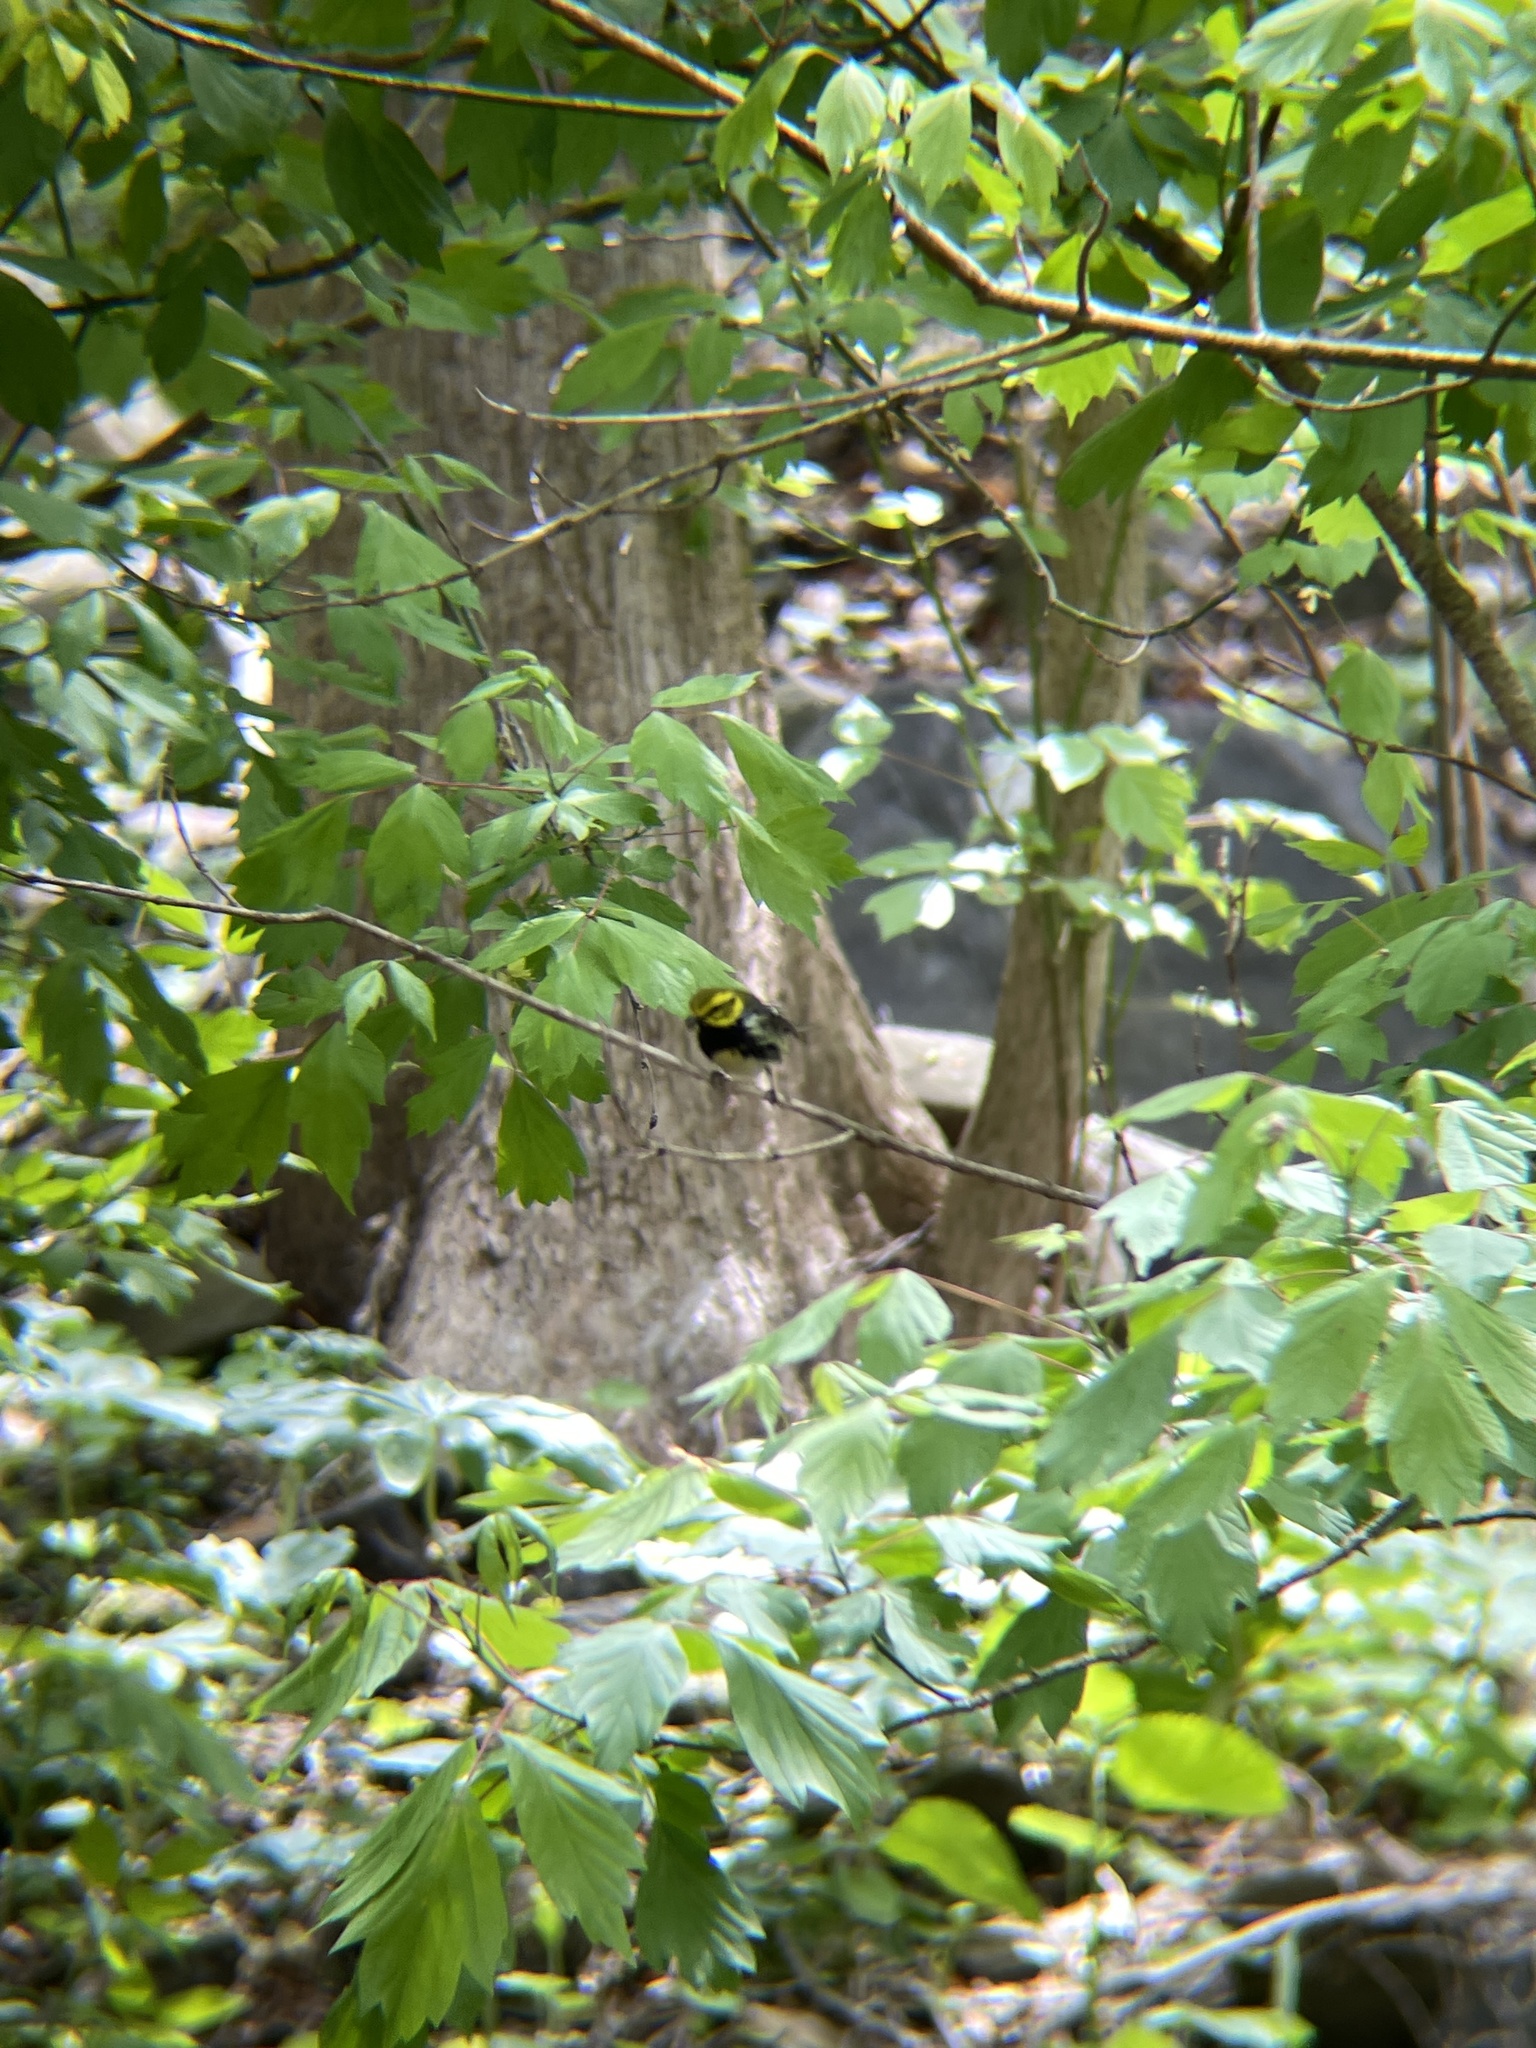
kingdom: Animalia
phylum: Chordata
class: Aves
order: Passeriformes
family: Parulidae
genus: Setophaga
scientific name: Setophaga virens
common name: Black-throated green warbler
